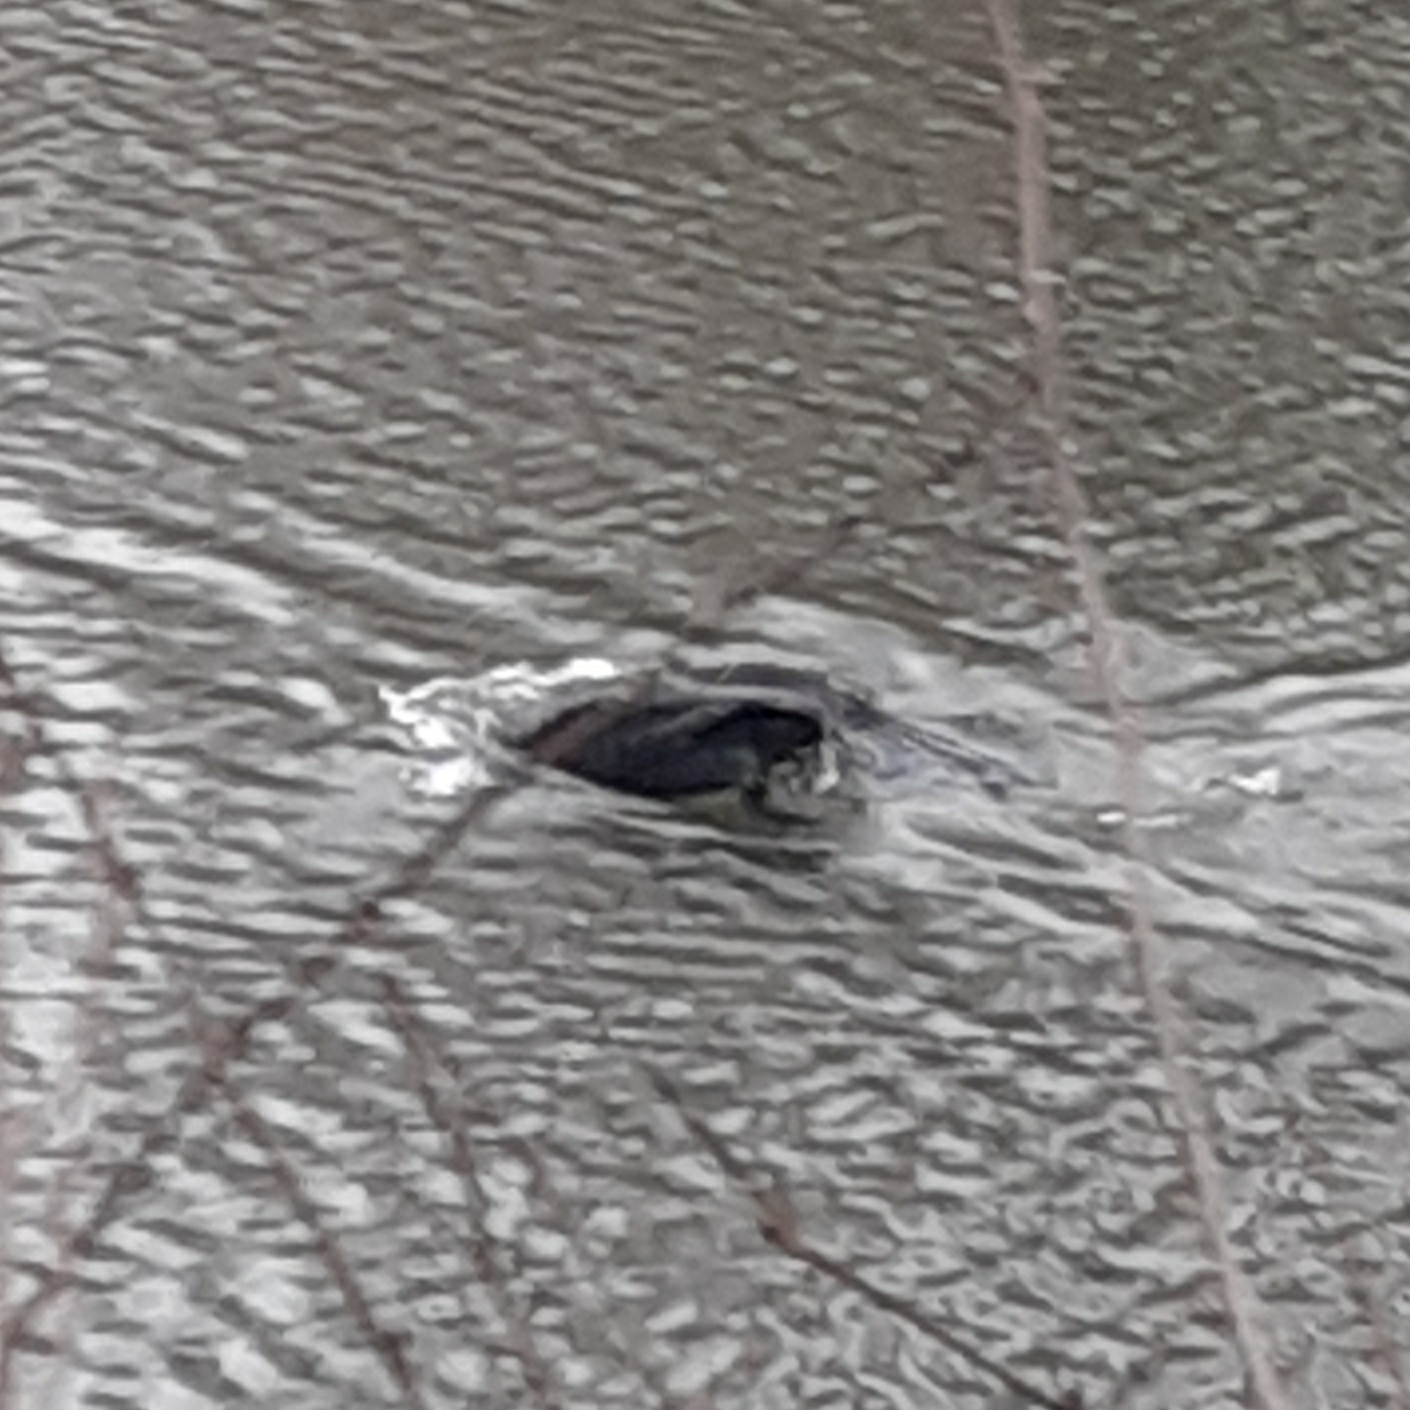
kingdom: Animalia
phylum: Chordata
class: Aves
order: Suliformes
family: Phalacrocoracidae
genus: Phalacrocorax
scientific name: Phalacrocorax carbo
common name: Great cormorant
